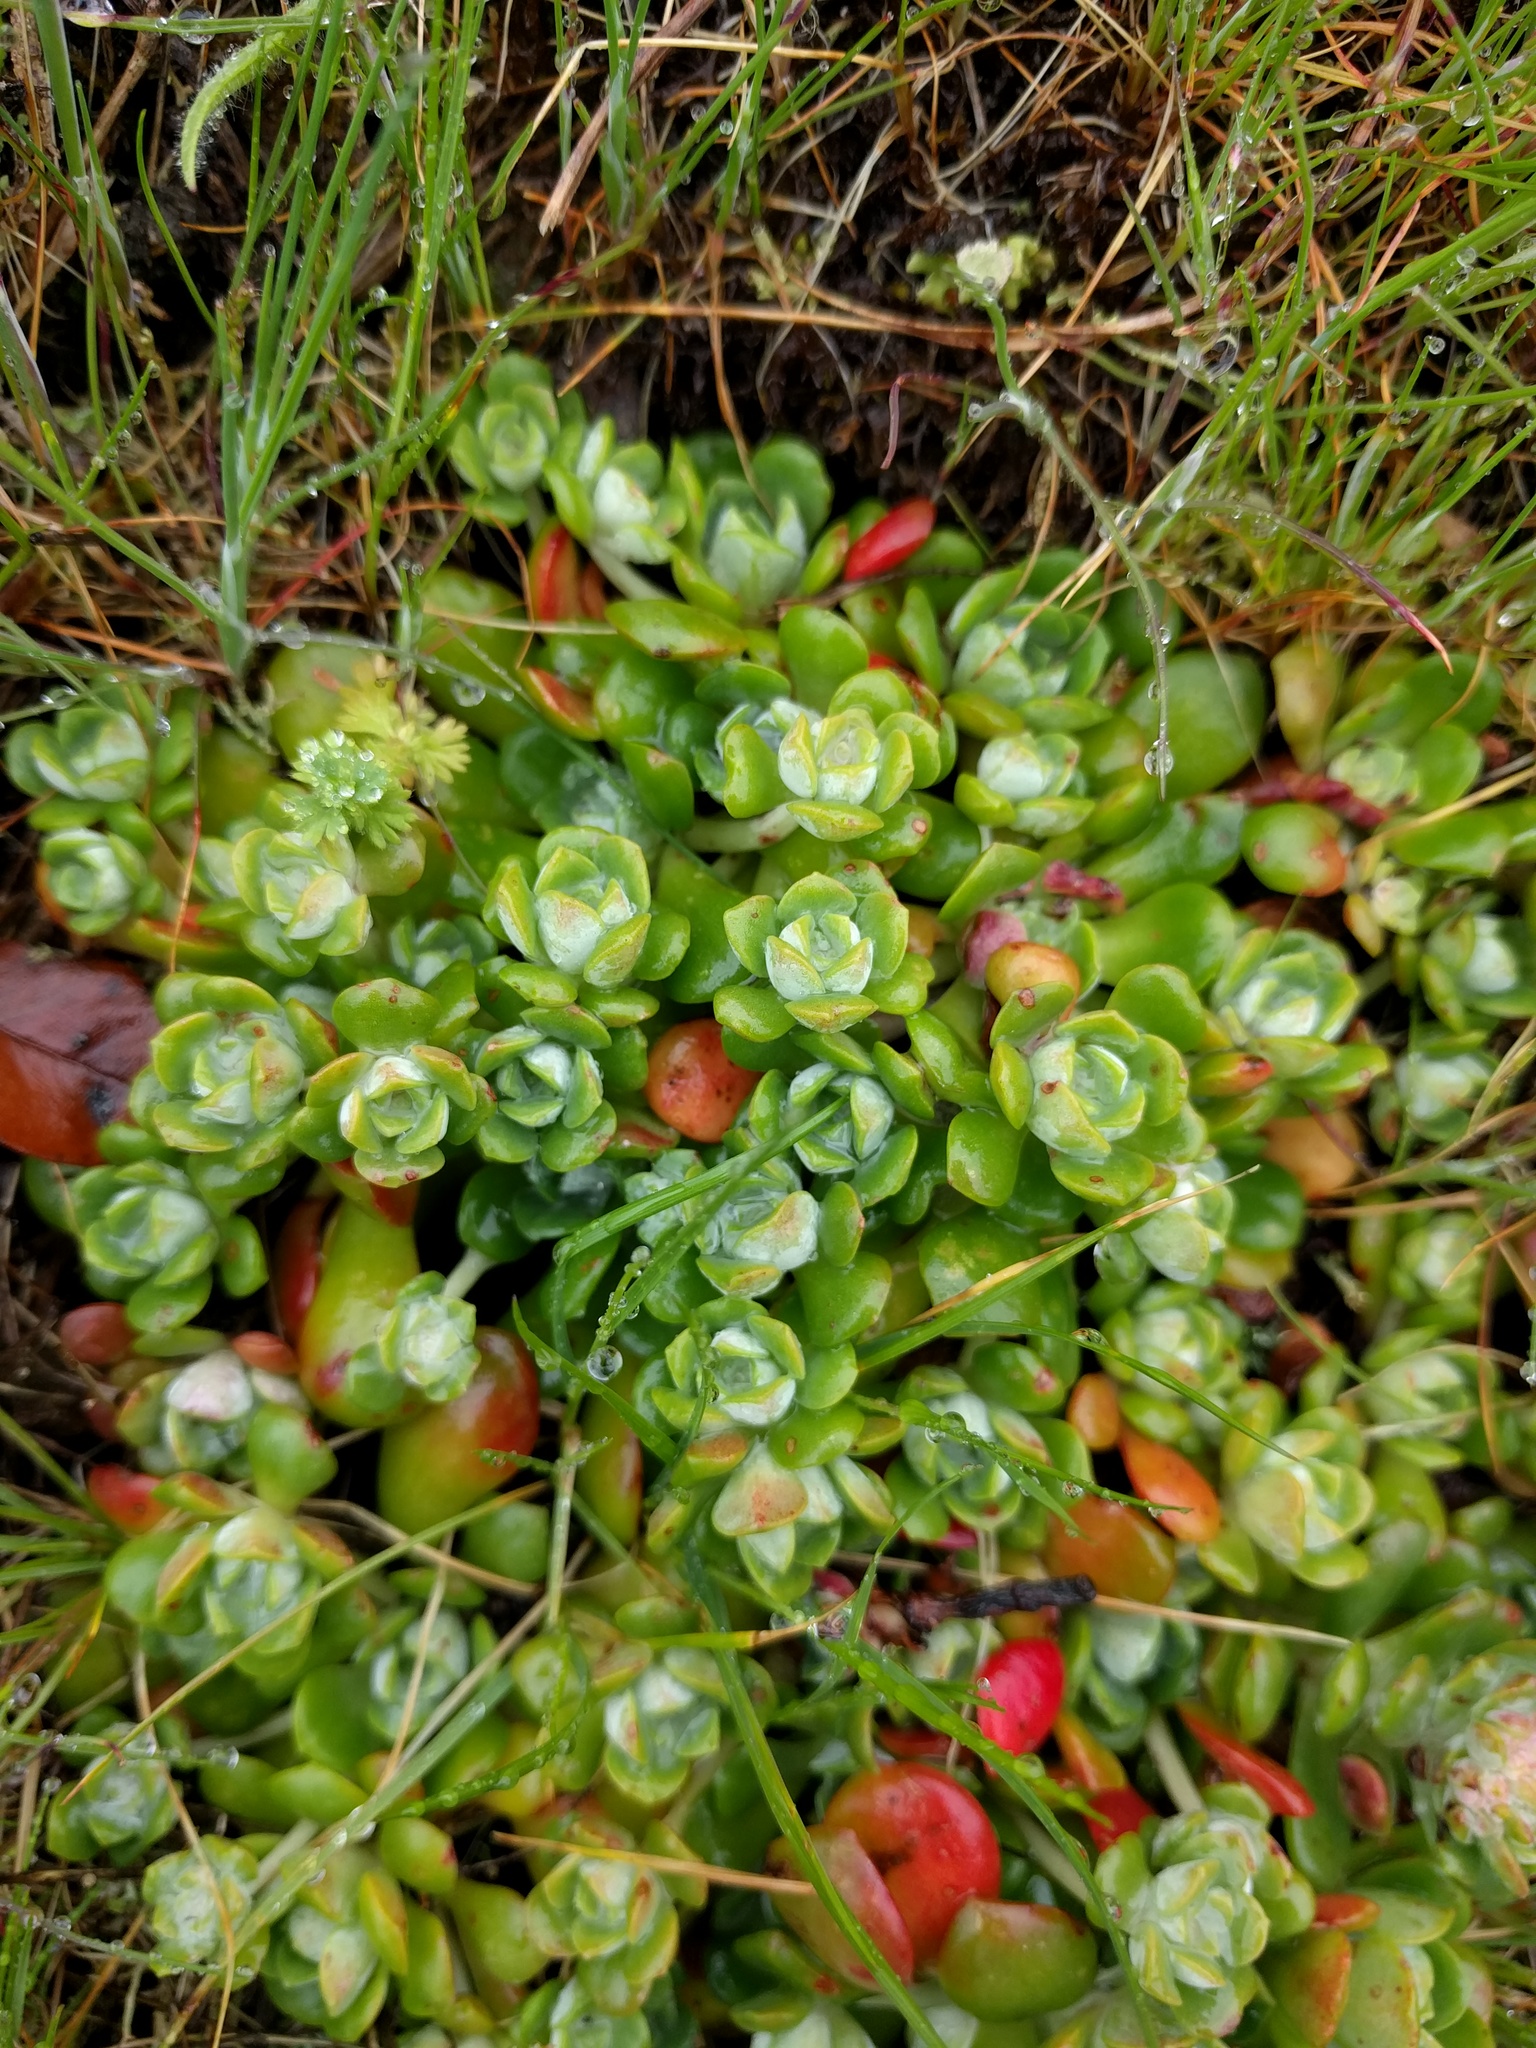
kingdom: Plantae
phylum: Tracheophyta
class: Magnoliopsida
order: Saxifragales
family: Crassulaceae
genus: Sedum
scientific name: Sedum spathulifolium
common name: Colorado stonecrop
